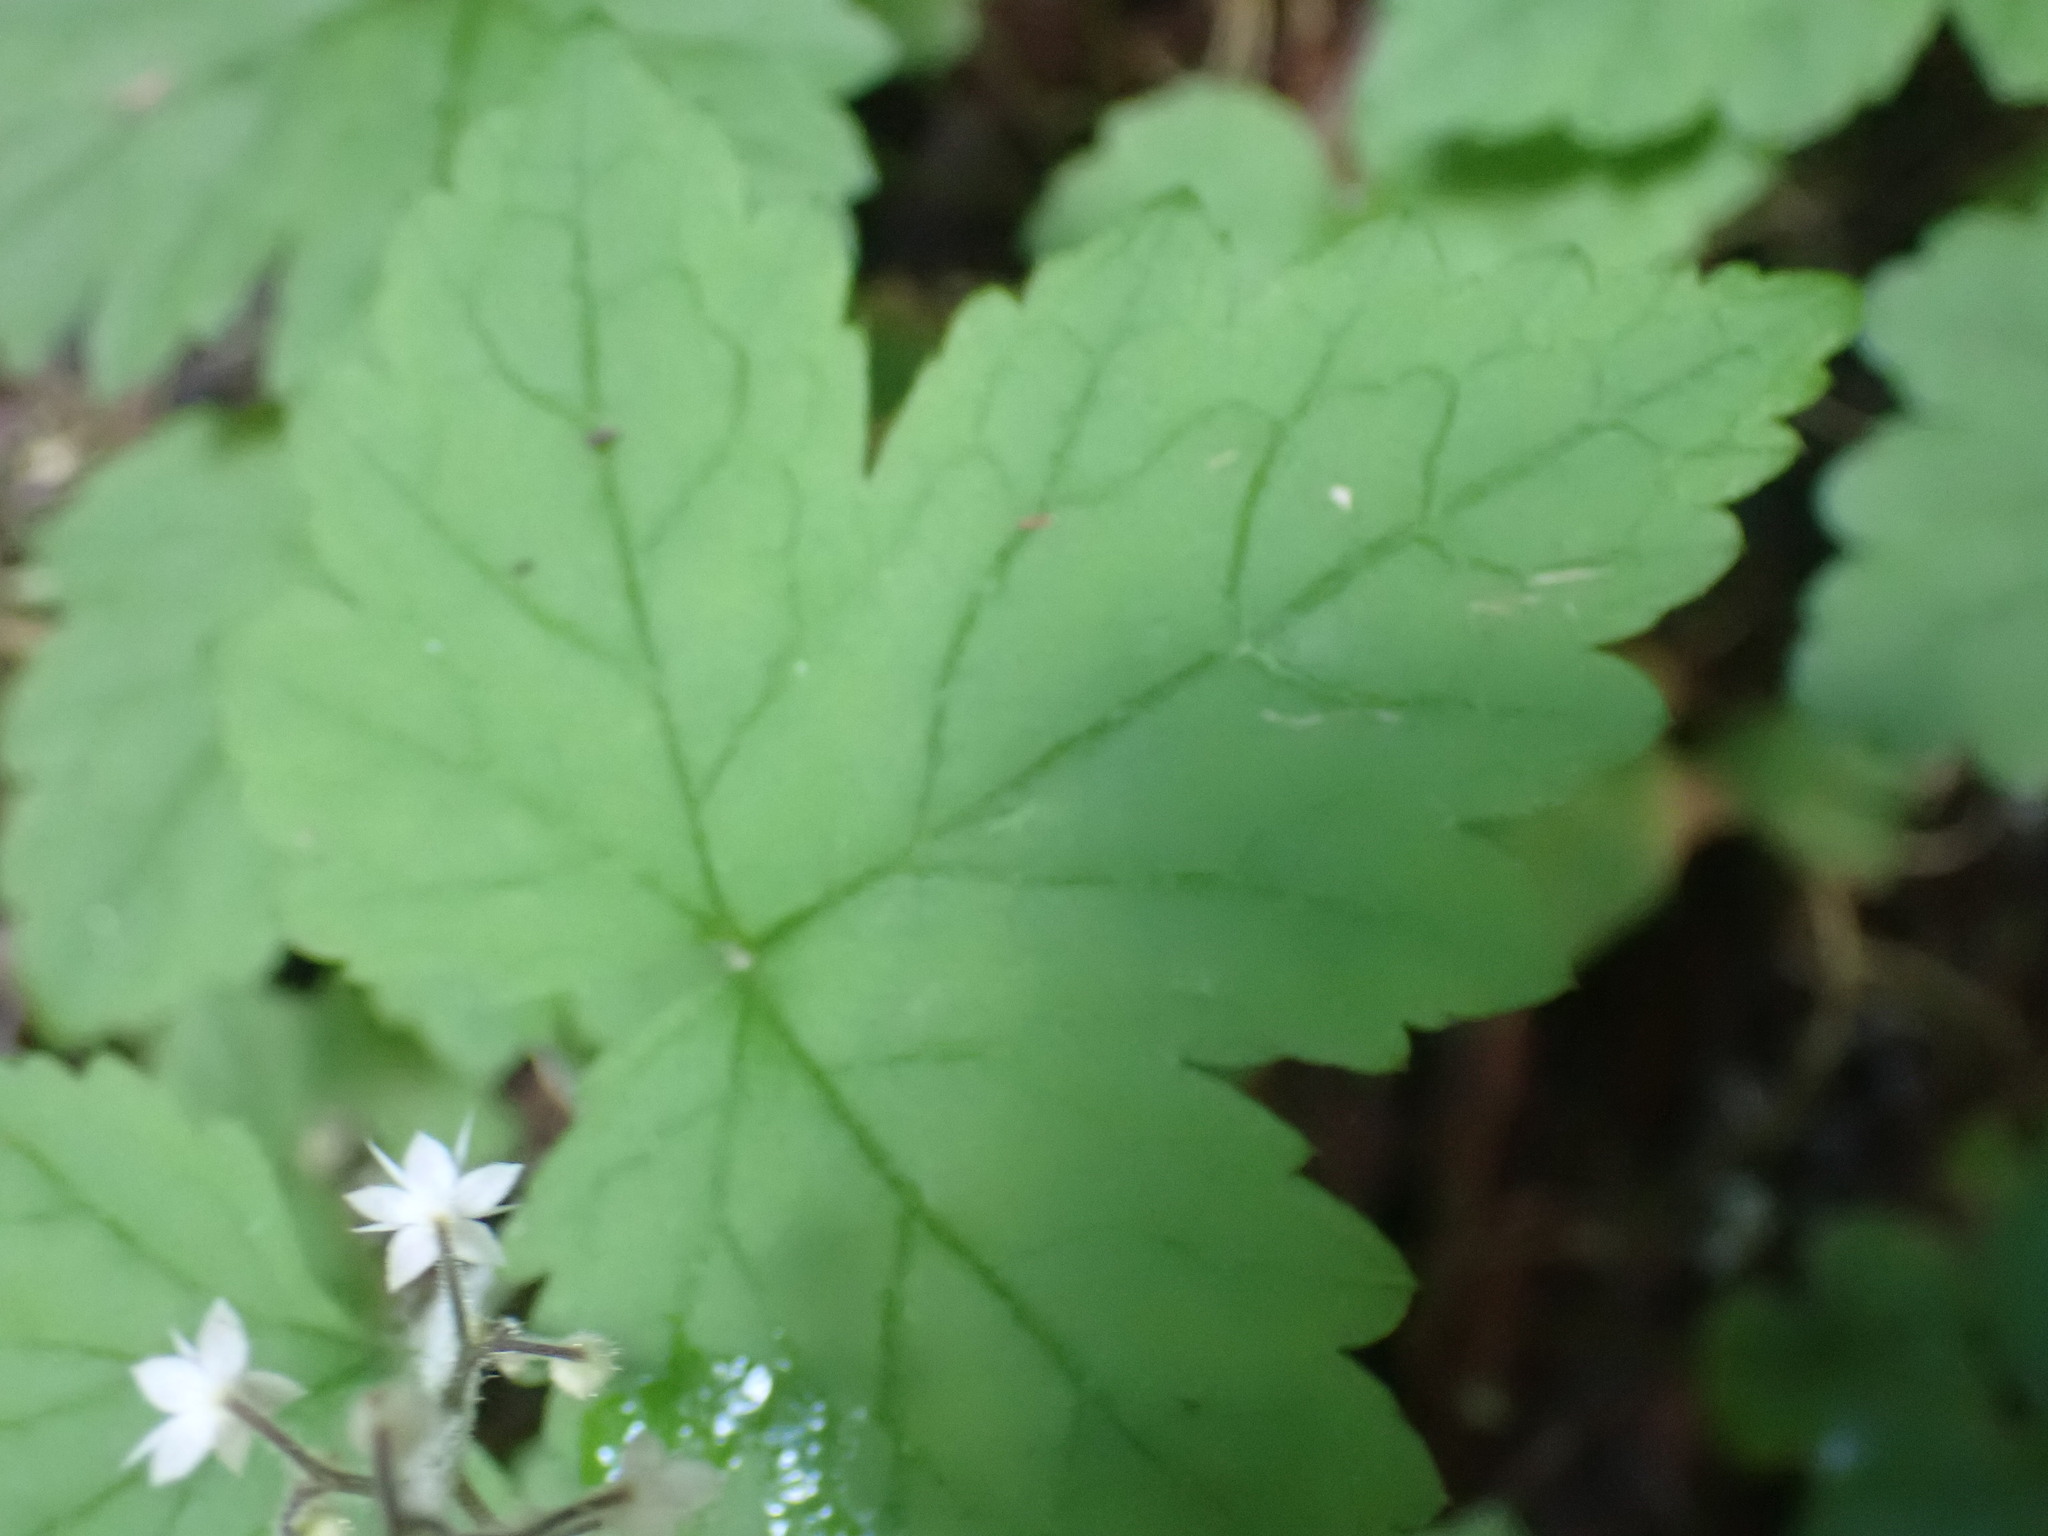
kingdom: Plantae
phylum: Tracheophyta
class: Magnoliopsida
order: Saxifragales
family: Saxifragaceae
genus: Tiarella
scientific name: Tiarella trifoliata
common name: Sugar-scoop
